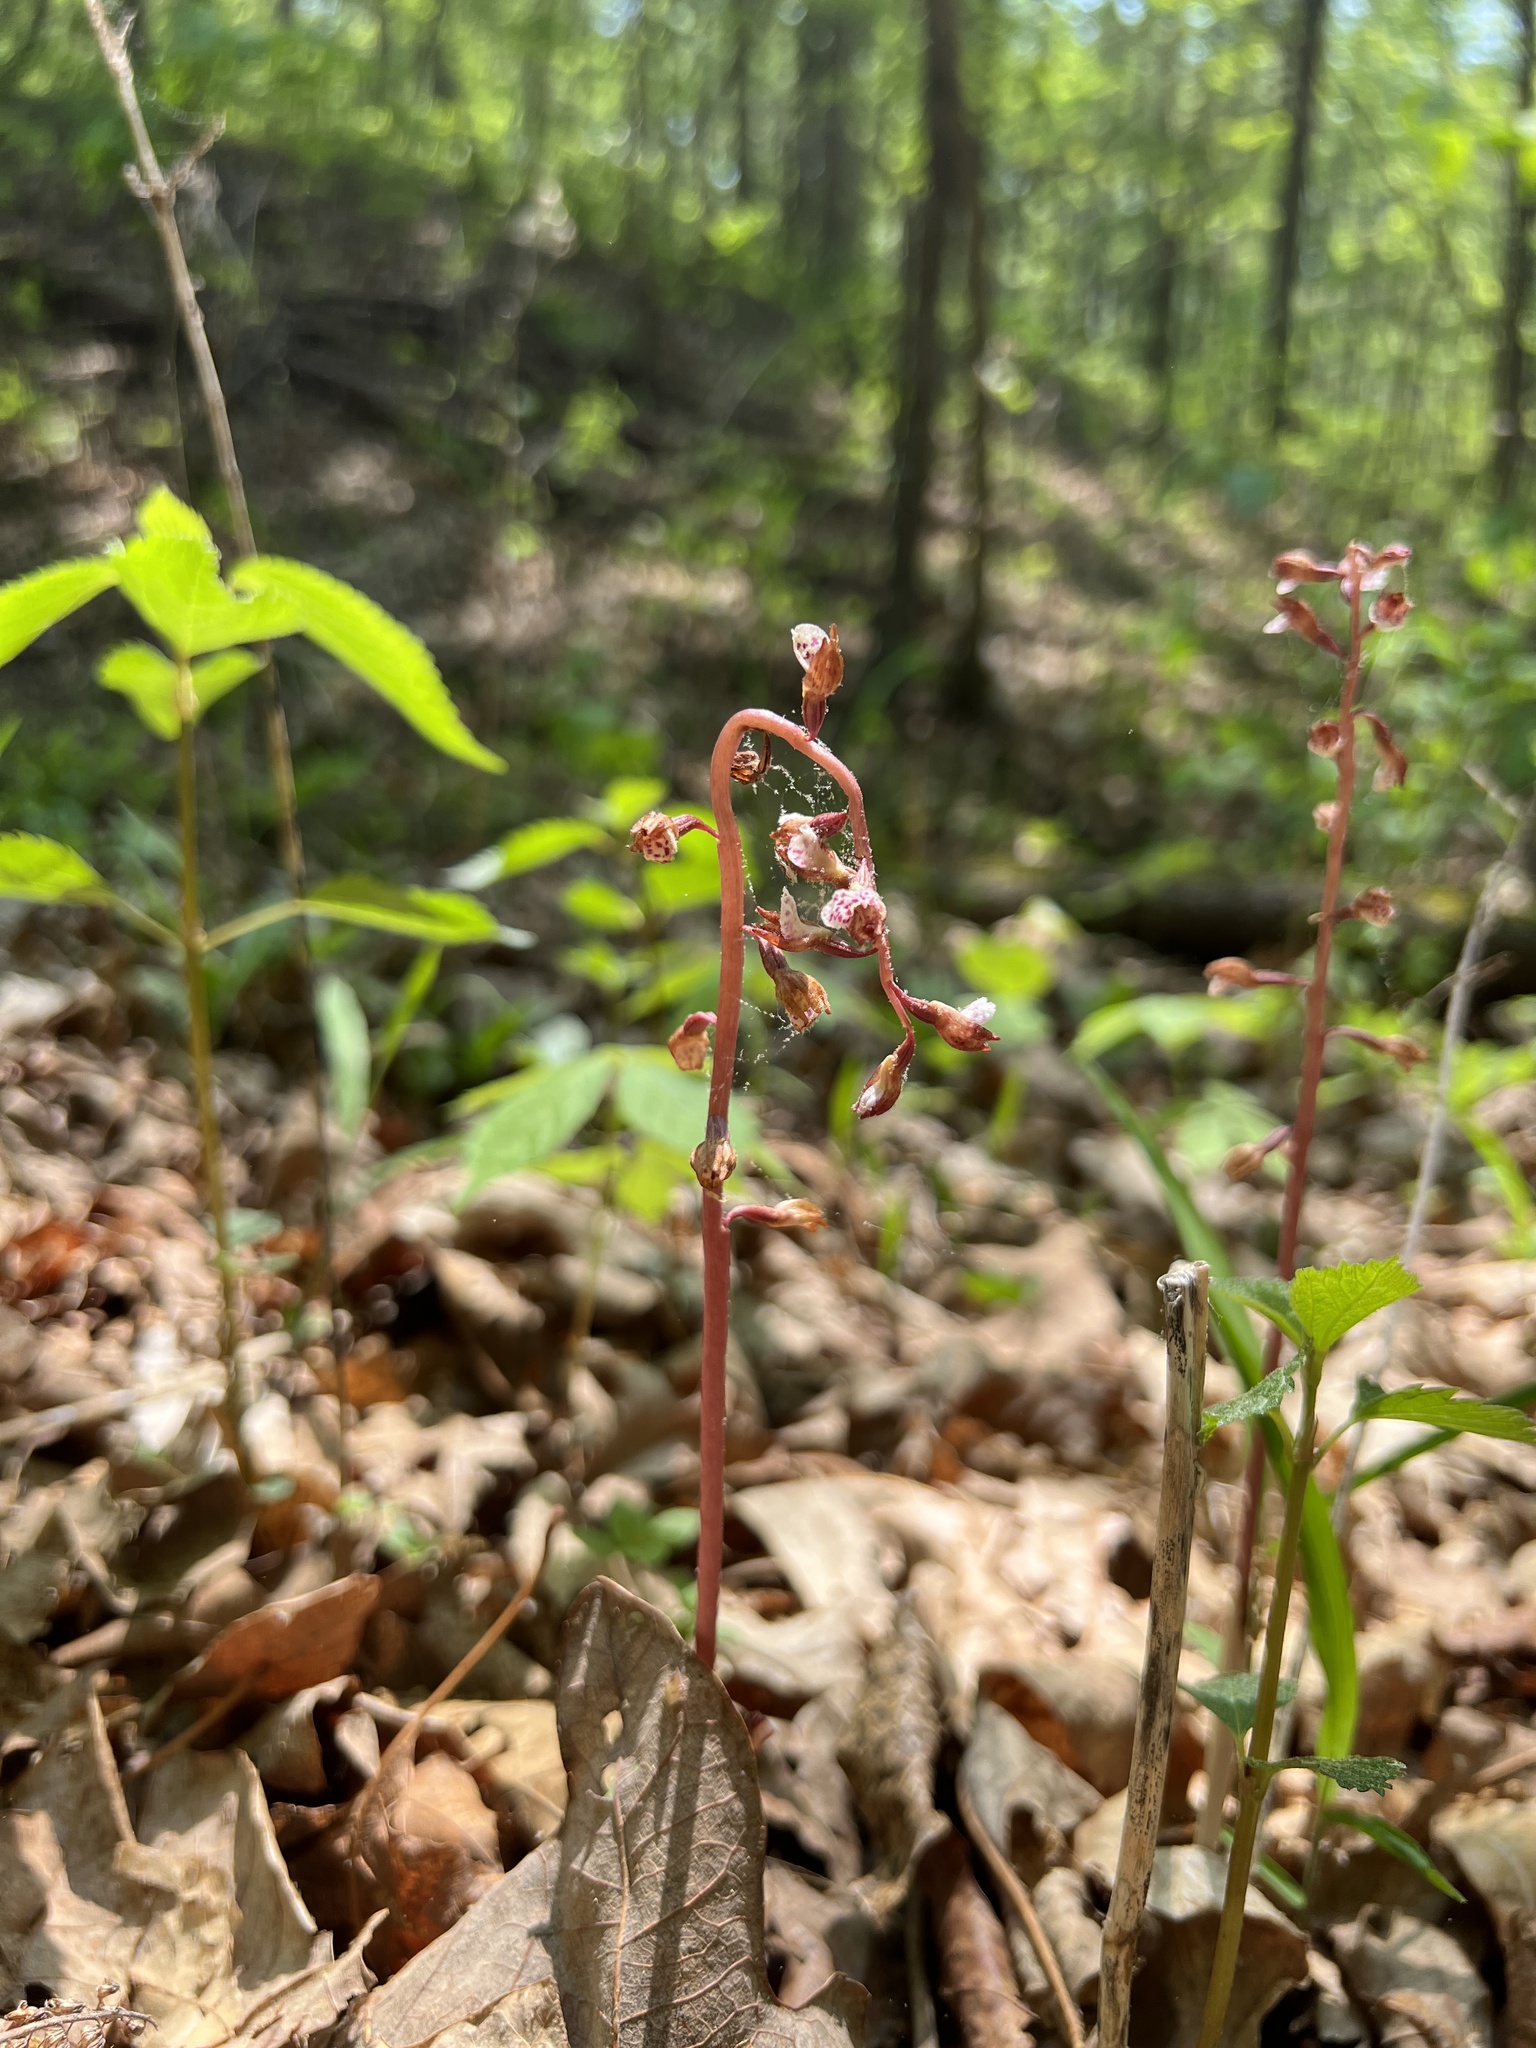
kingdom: Plantae
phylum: Tracheophyta
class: Liliopsida
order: Asparagales
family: Orchidaceae
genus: Corallorhiza
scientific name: Corallorhiza wisteriana
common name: Spring coralroot
